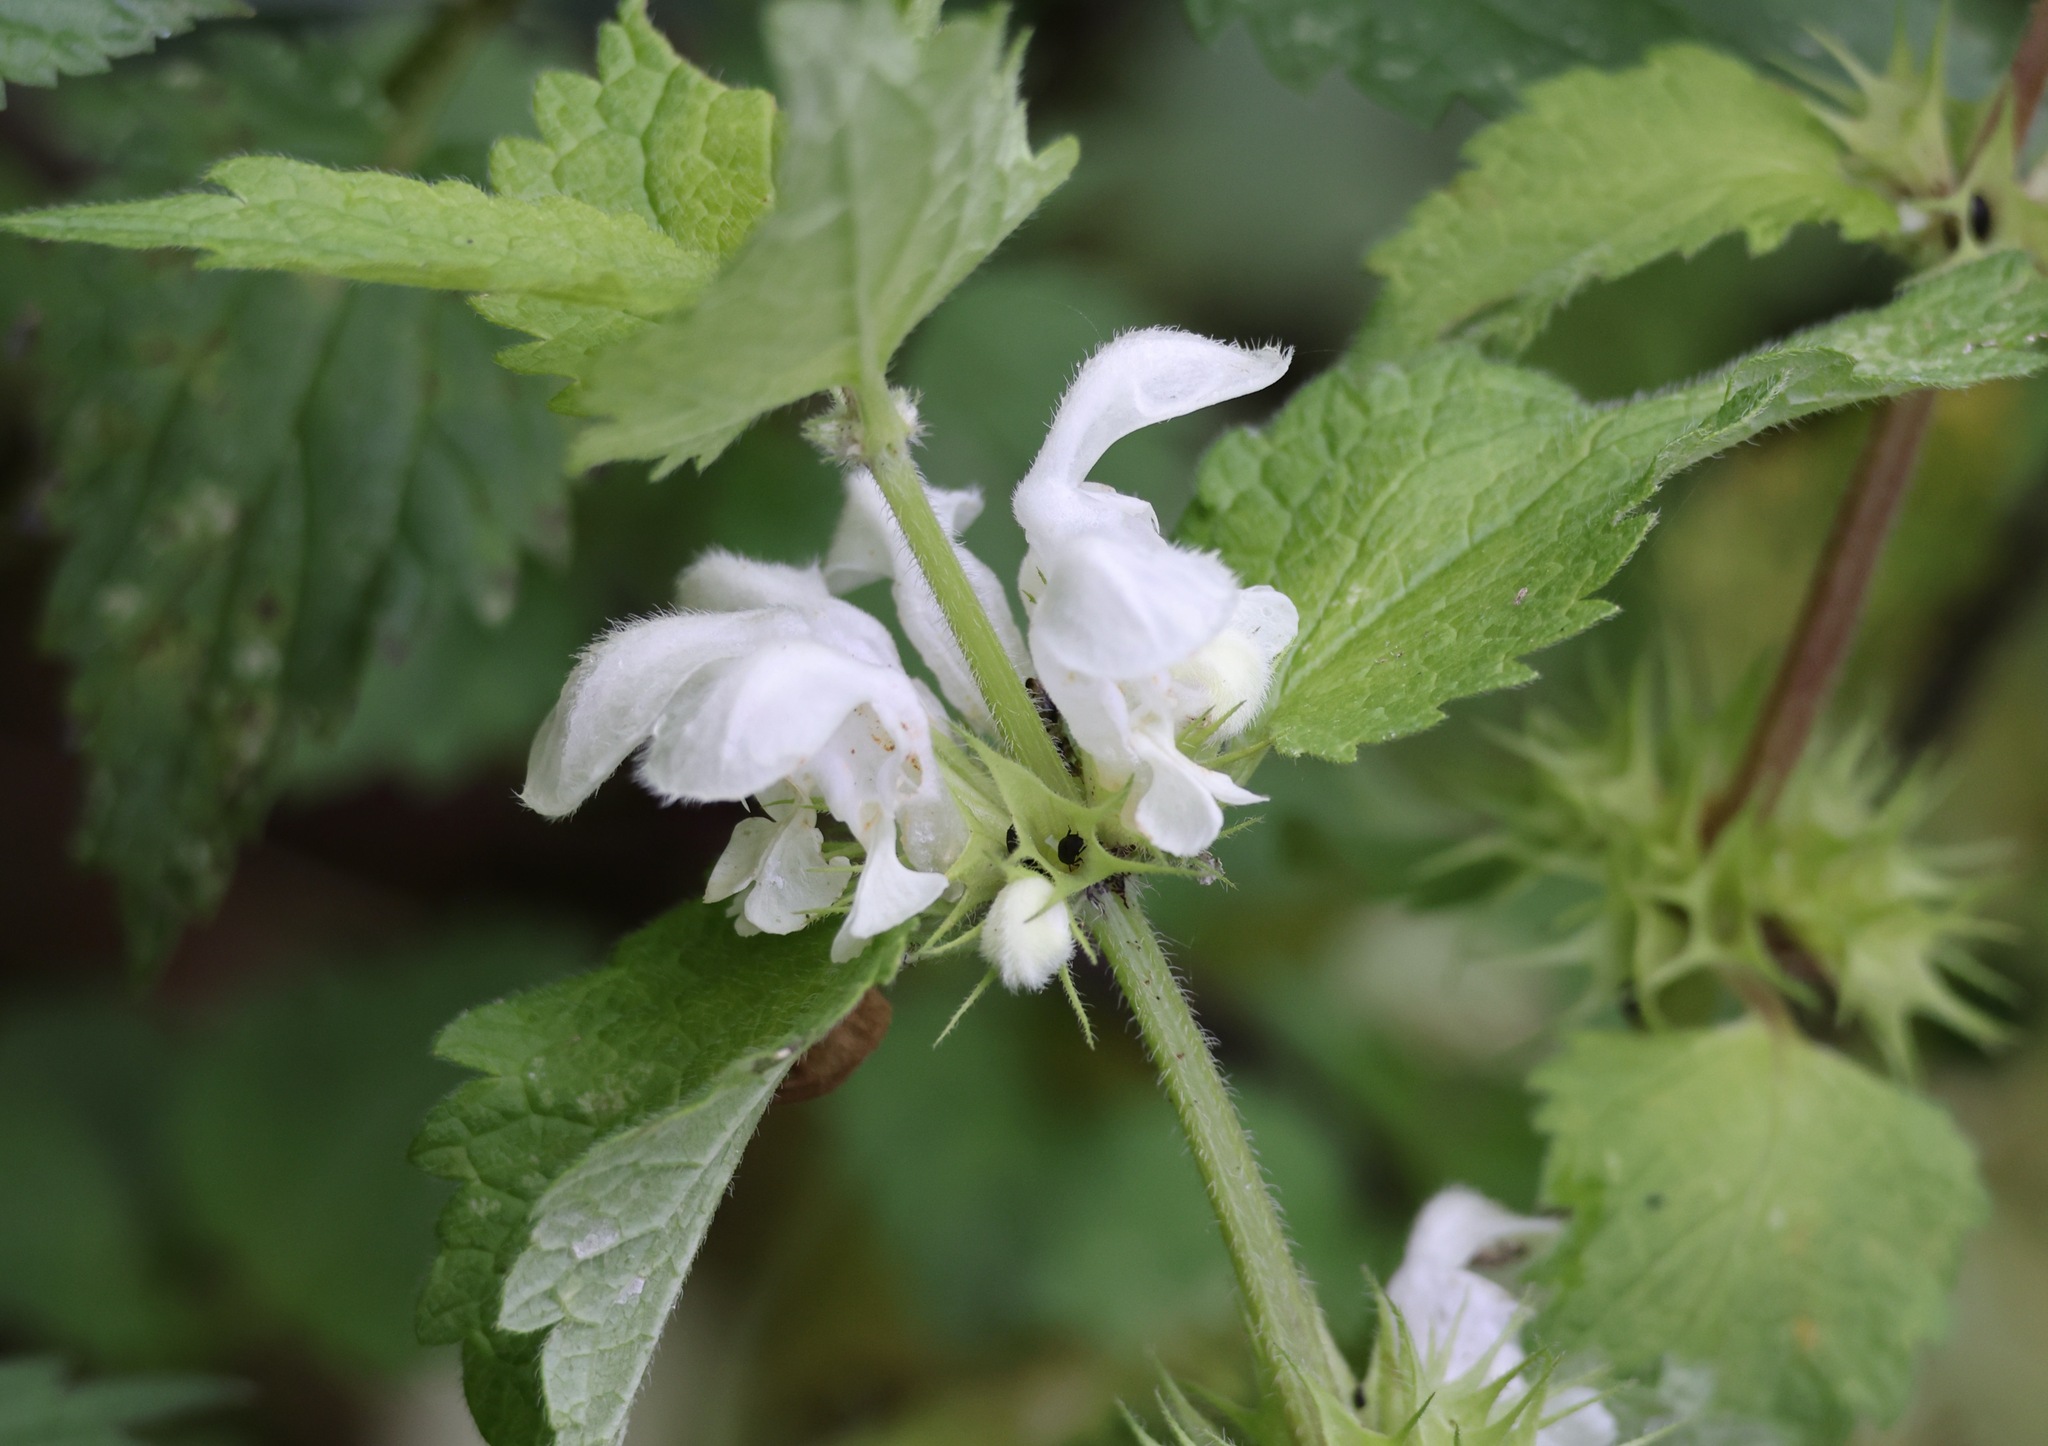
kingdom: Plantae
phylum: Tracheophyta
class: Magnoliopsida
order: Lamiales
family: Lamiaceae
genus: Lamium
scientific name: Lamium album
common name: White dead-nettle
